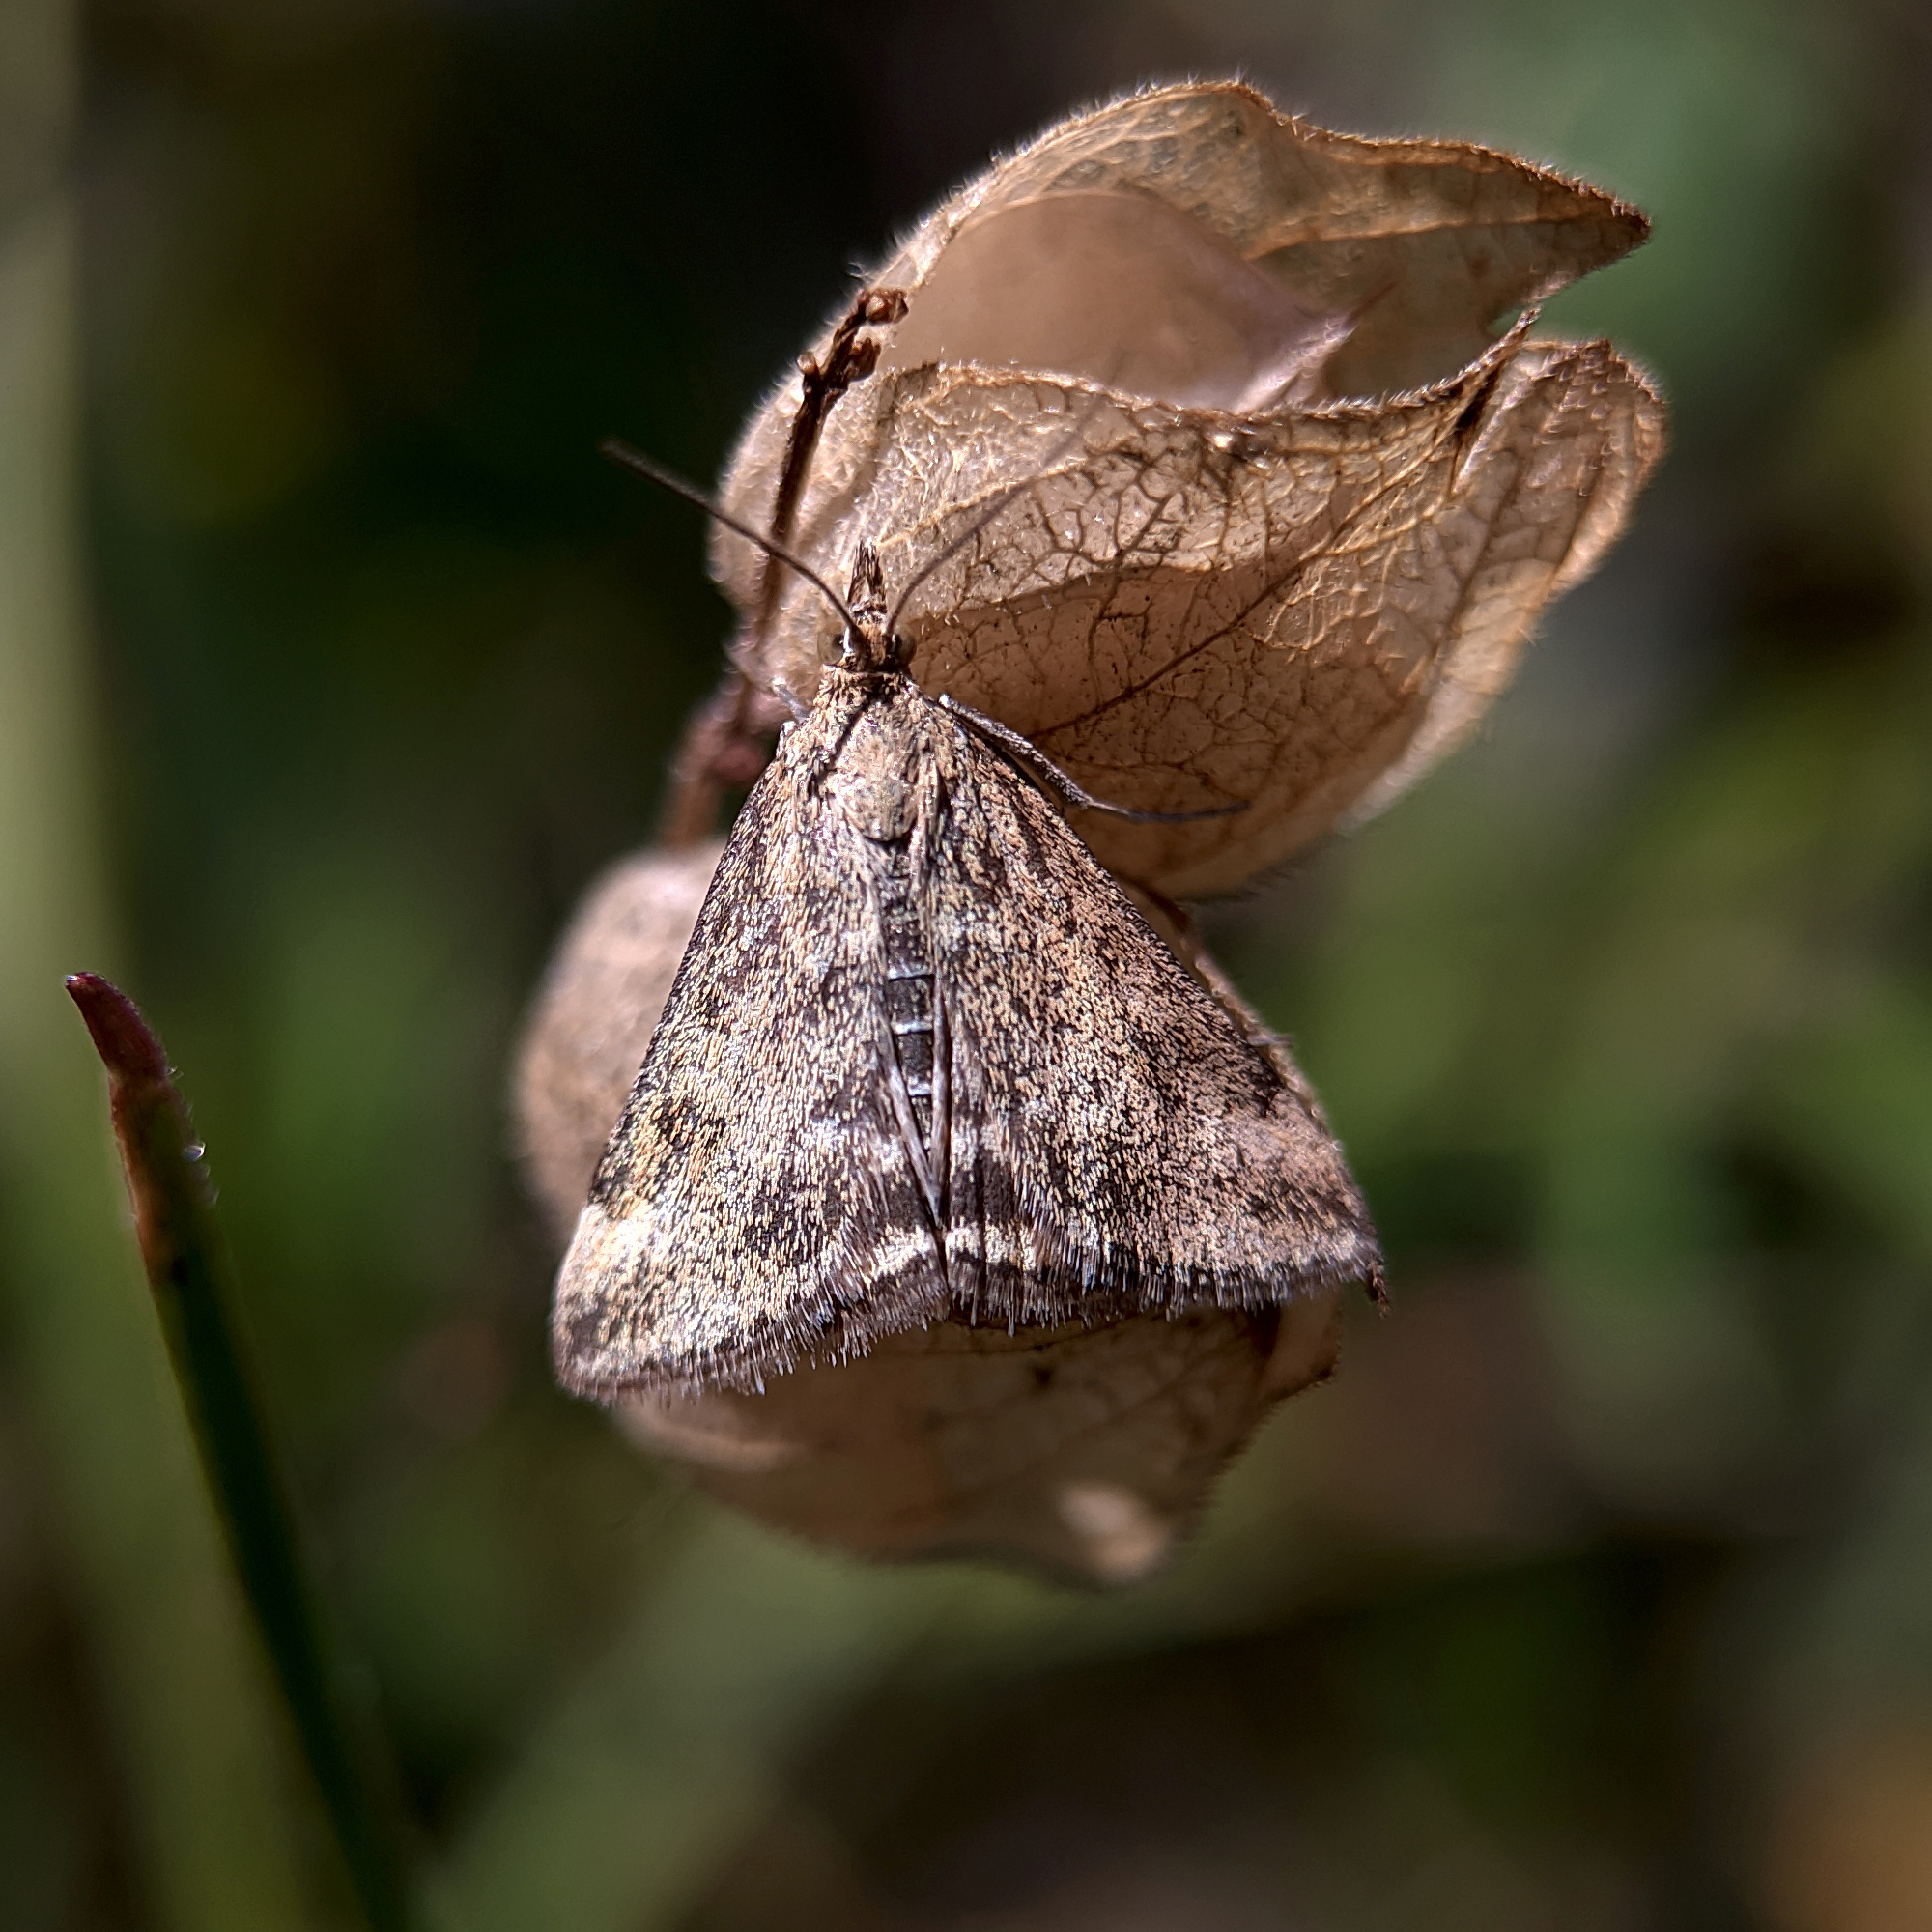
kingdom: Animalia
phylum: Arthropoda
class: Insecta
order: Lepidoptera
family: Crambidae
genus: Pyrausta
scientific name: Pyrausta despicata
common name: Straw-barred pearl
